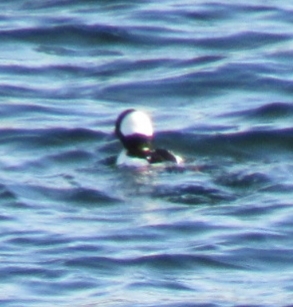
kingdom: Animalia
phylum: Chordata
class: Aves
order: Anseriformes
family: Anatidae
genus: Bucephala
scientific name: Bucephala albeola
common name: Bufflehead
